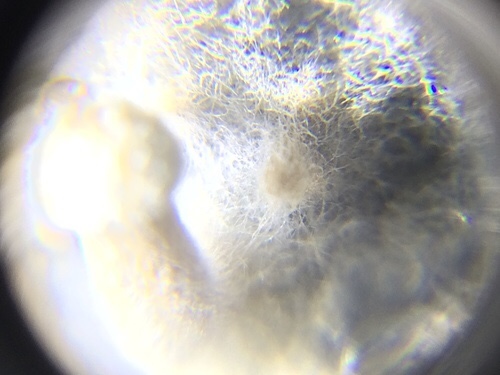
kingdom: Fungi
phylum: Basidiomycota
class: Agaricomycetes
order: Agaricales
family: Lyophyllaceae
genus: Asterophora
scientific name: Asterophora lycoperdoides
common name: Pick-a-back toadstool
